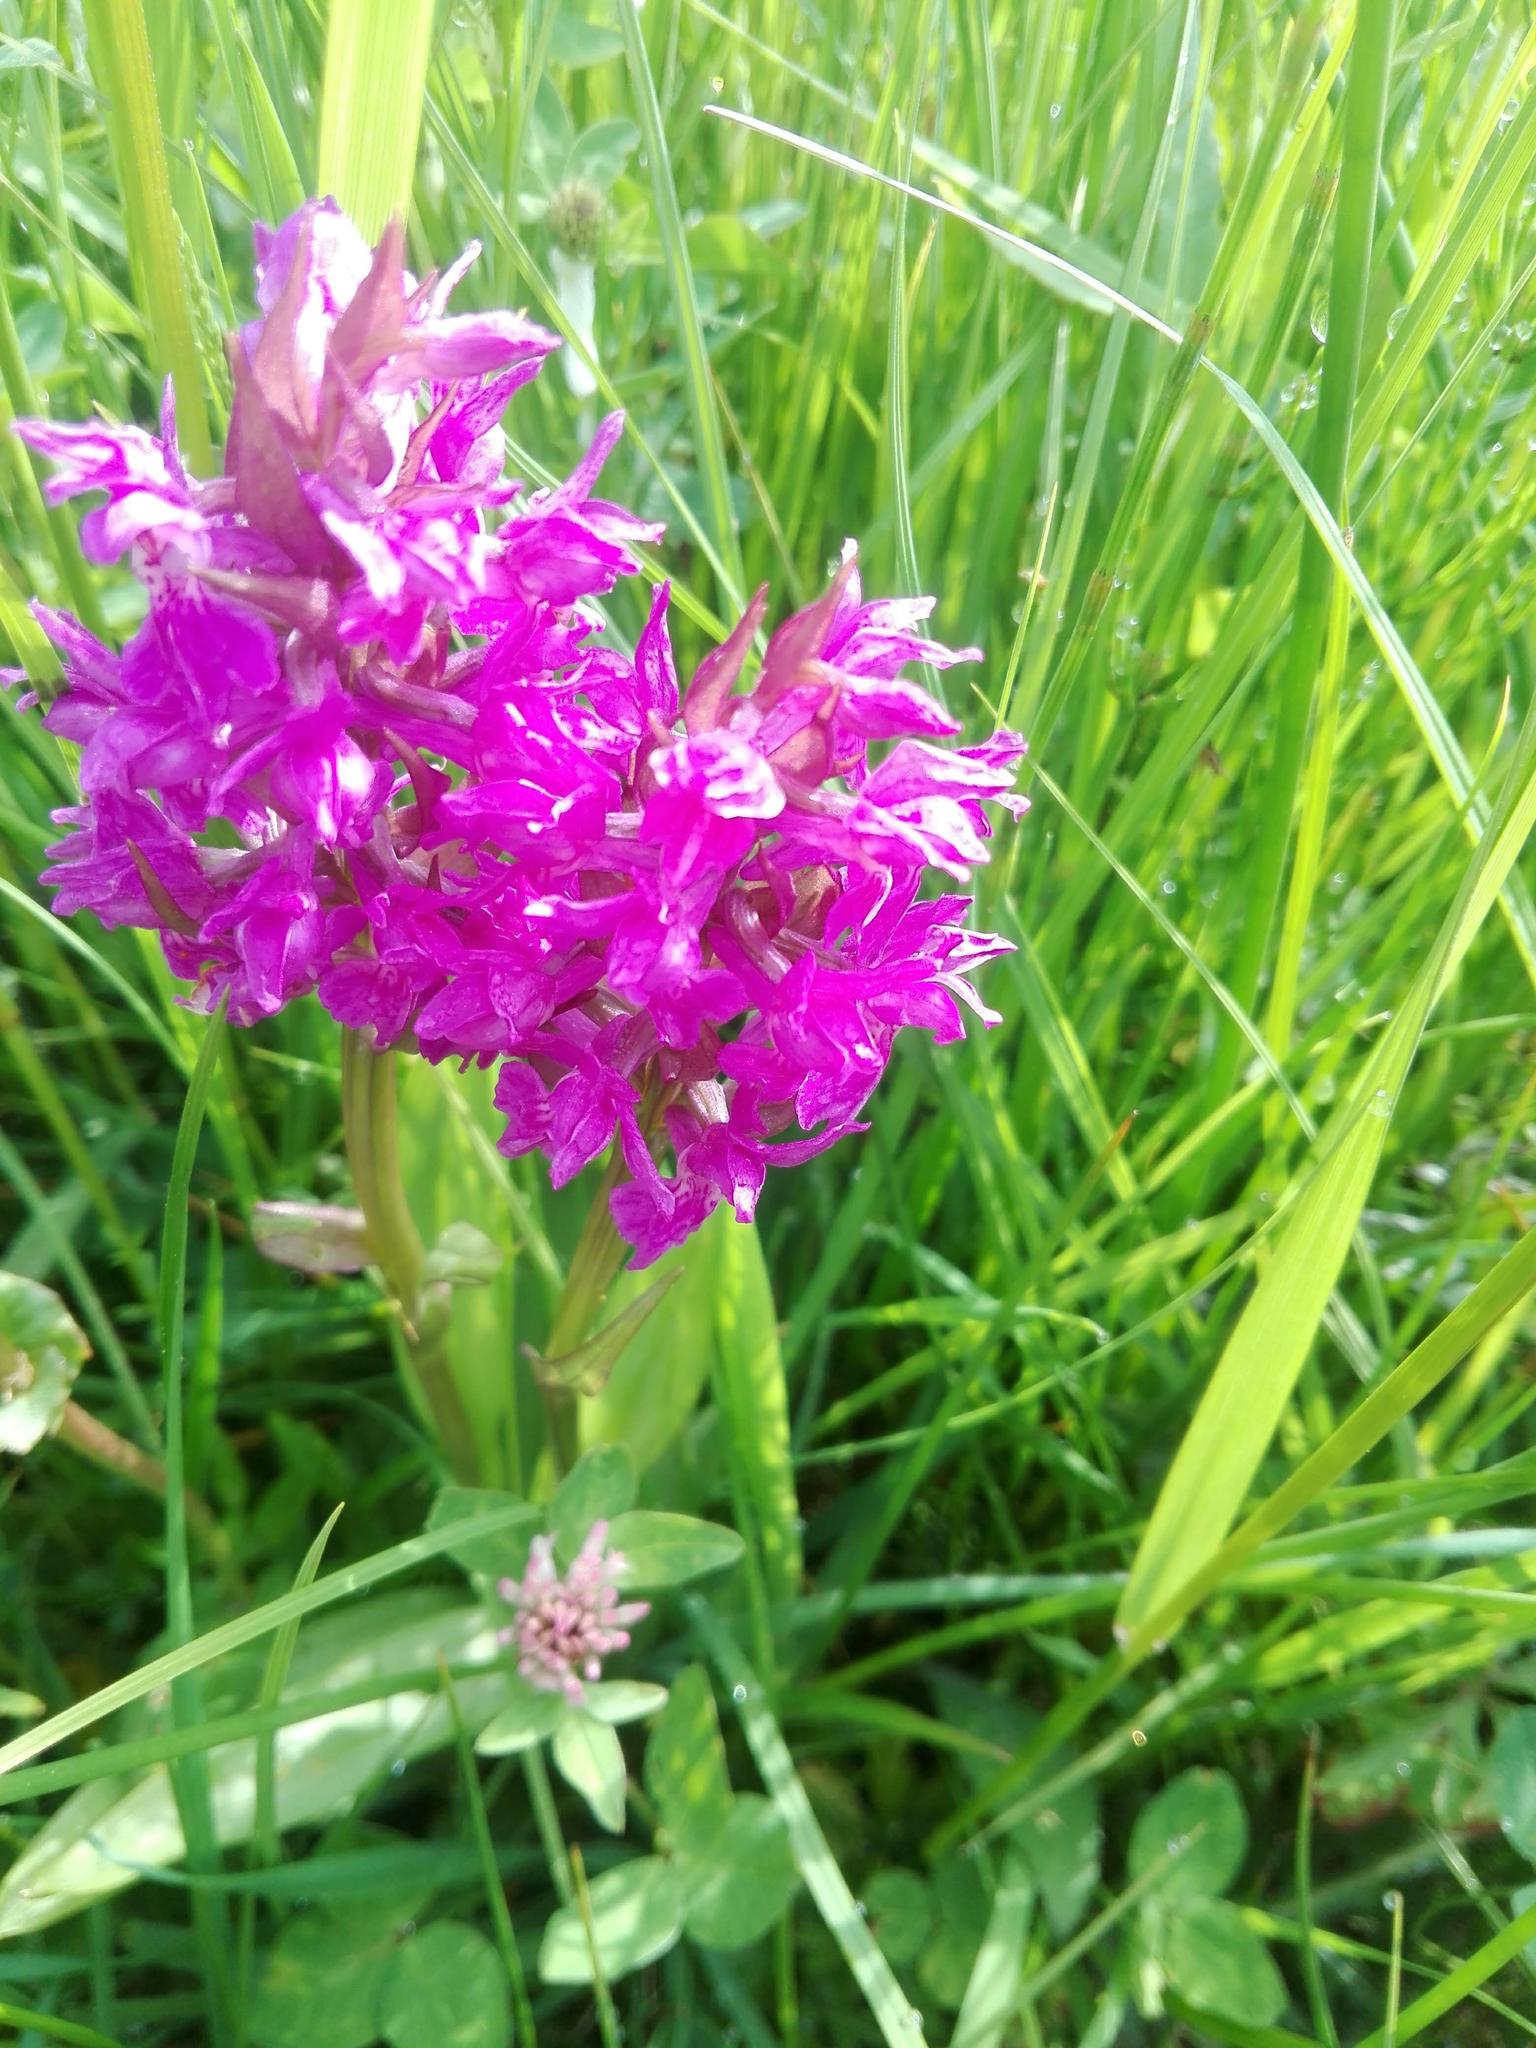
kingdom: Plantae
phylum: Tracheophyta
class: Liliopsida
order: Asparagales
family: Orchidaceae
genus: Dactylorhiza
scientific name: Dactylorhiza majalis
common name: Marsh orchid
